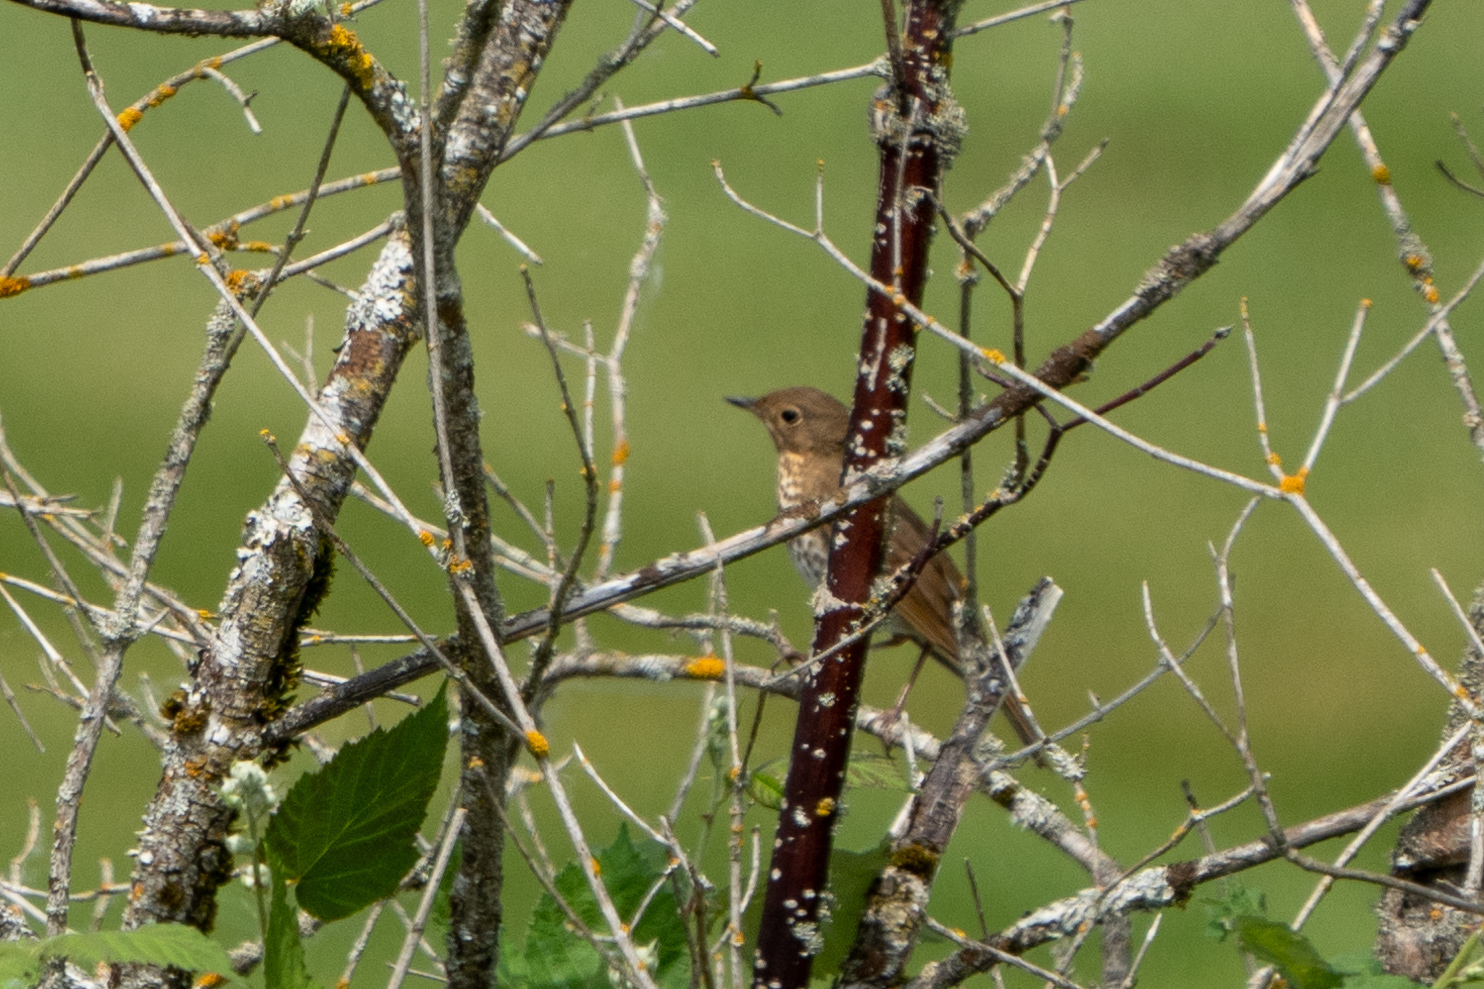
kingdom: Animalia
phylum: Chordata
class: Aves
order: Passeriformes
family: Turdidae
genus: Catharus
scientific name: Catharus ustulatus
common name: Swainson's thrush
